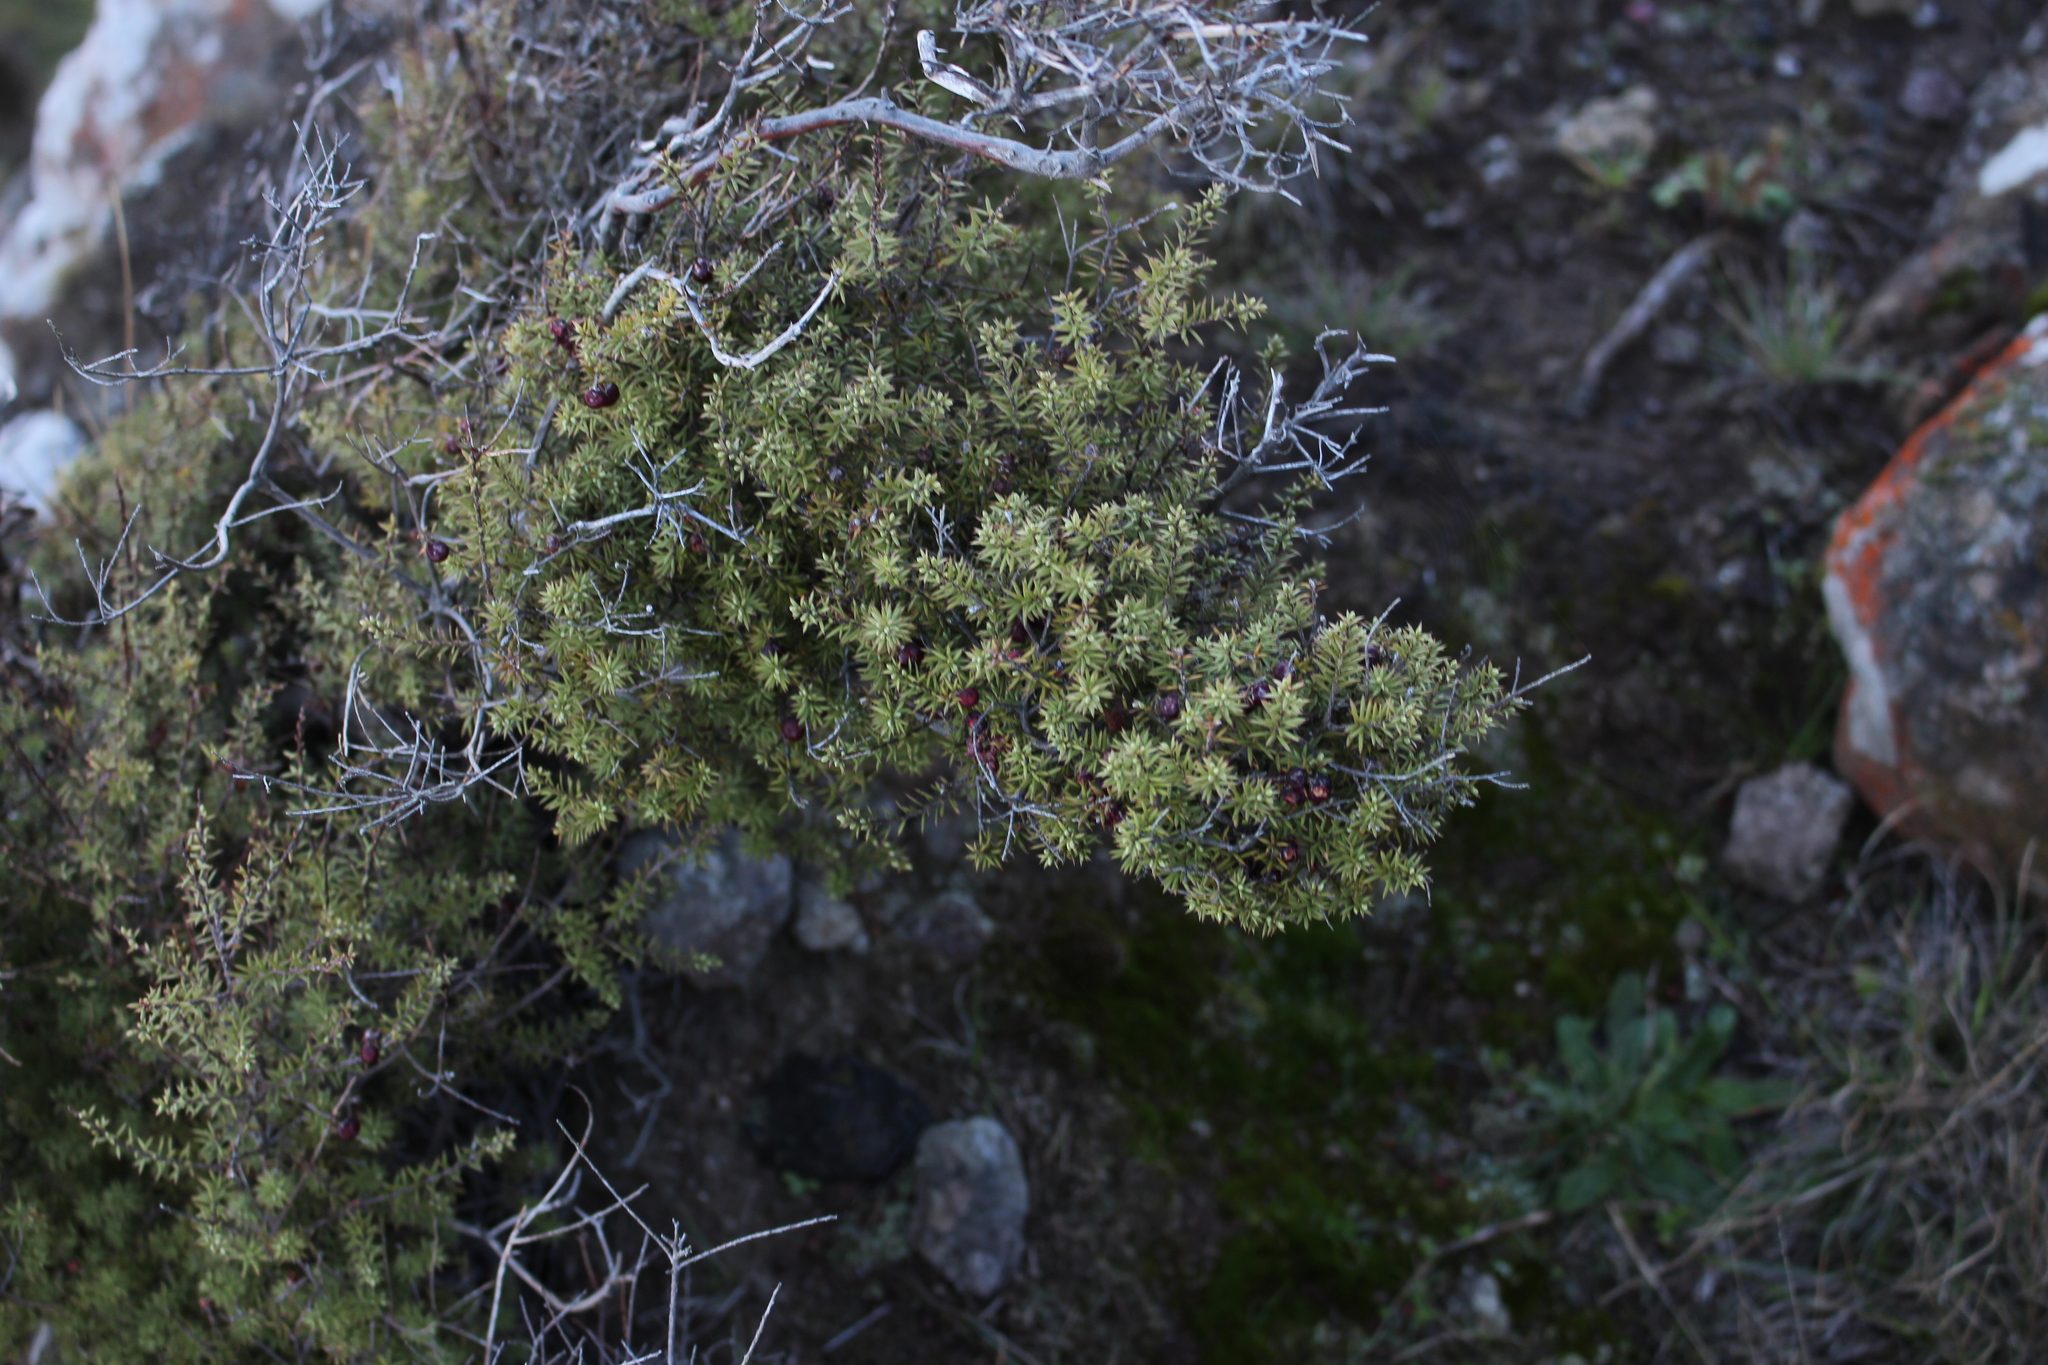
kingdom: Plantae
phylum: Tracheophyta
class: Magnoliopsida
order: Ericales
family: Ericaceae
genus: Leptecophylla
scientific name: Leptecophylla juniperina
